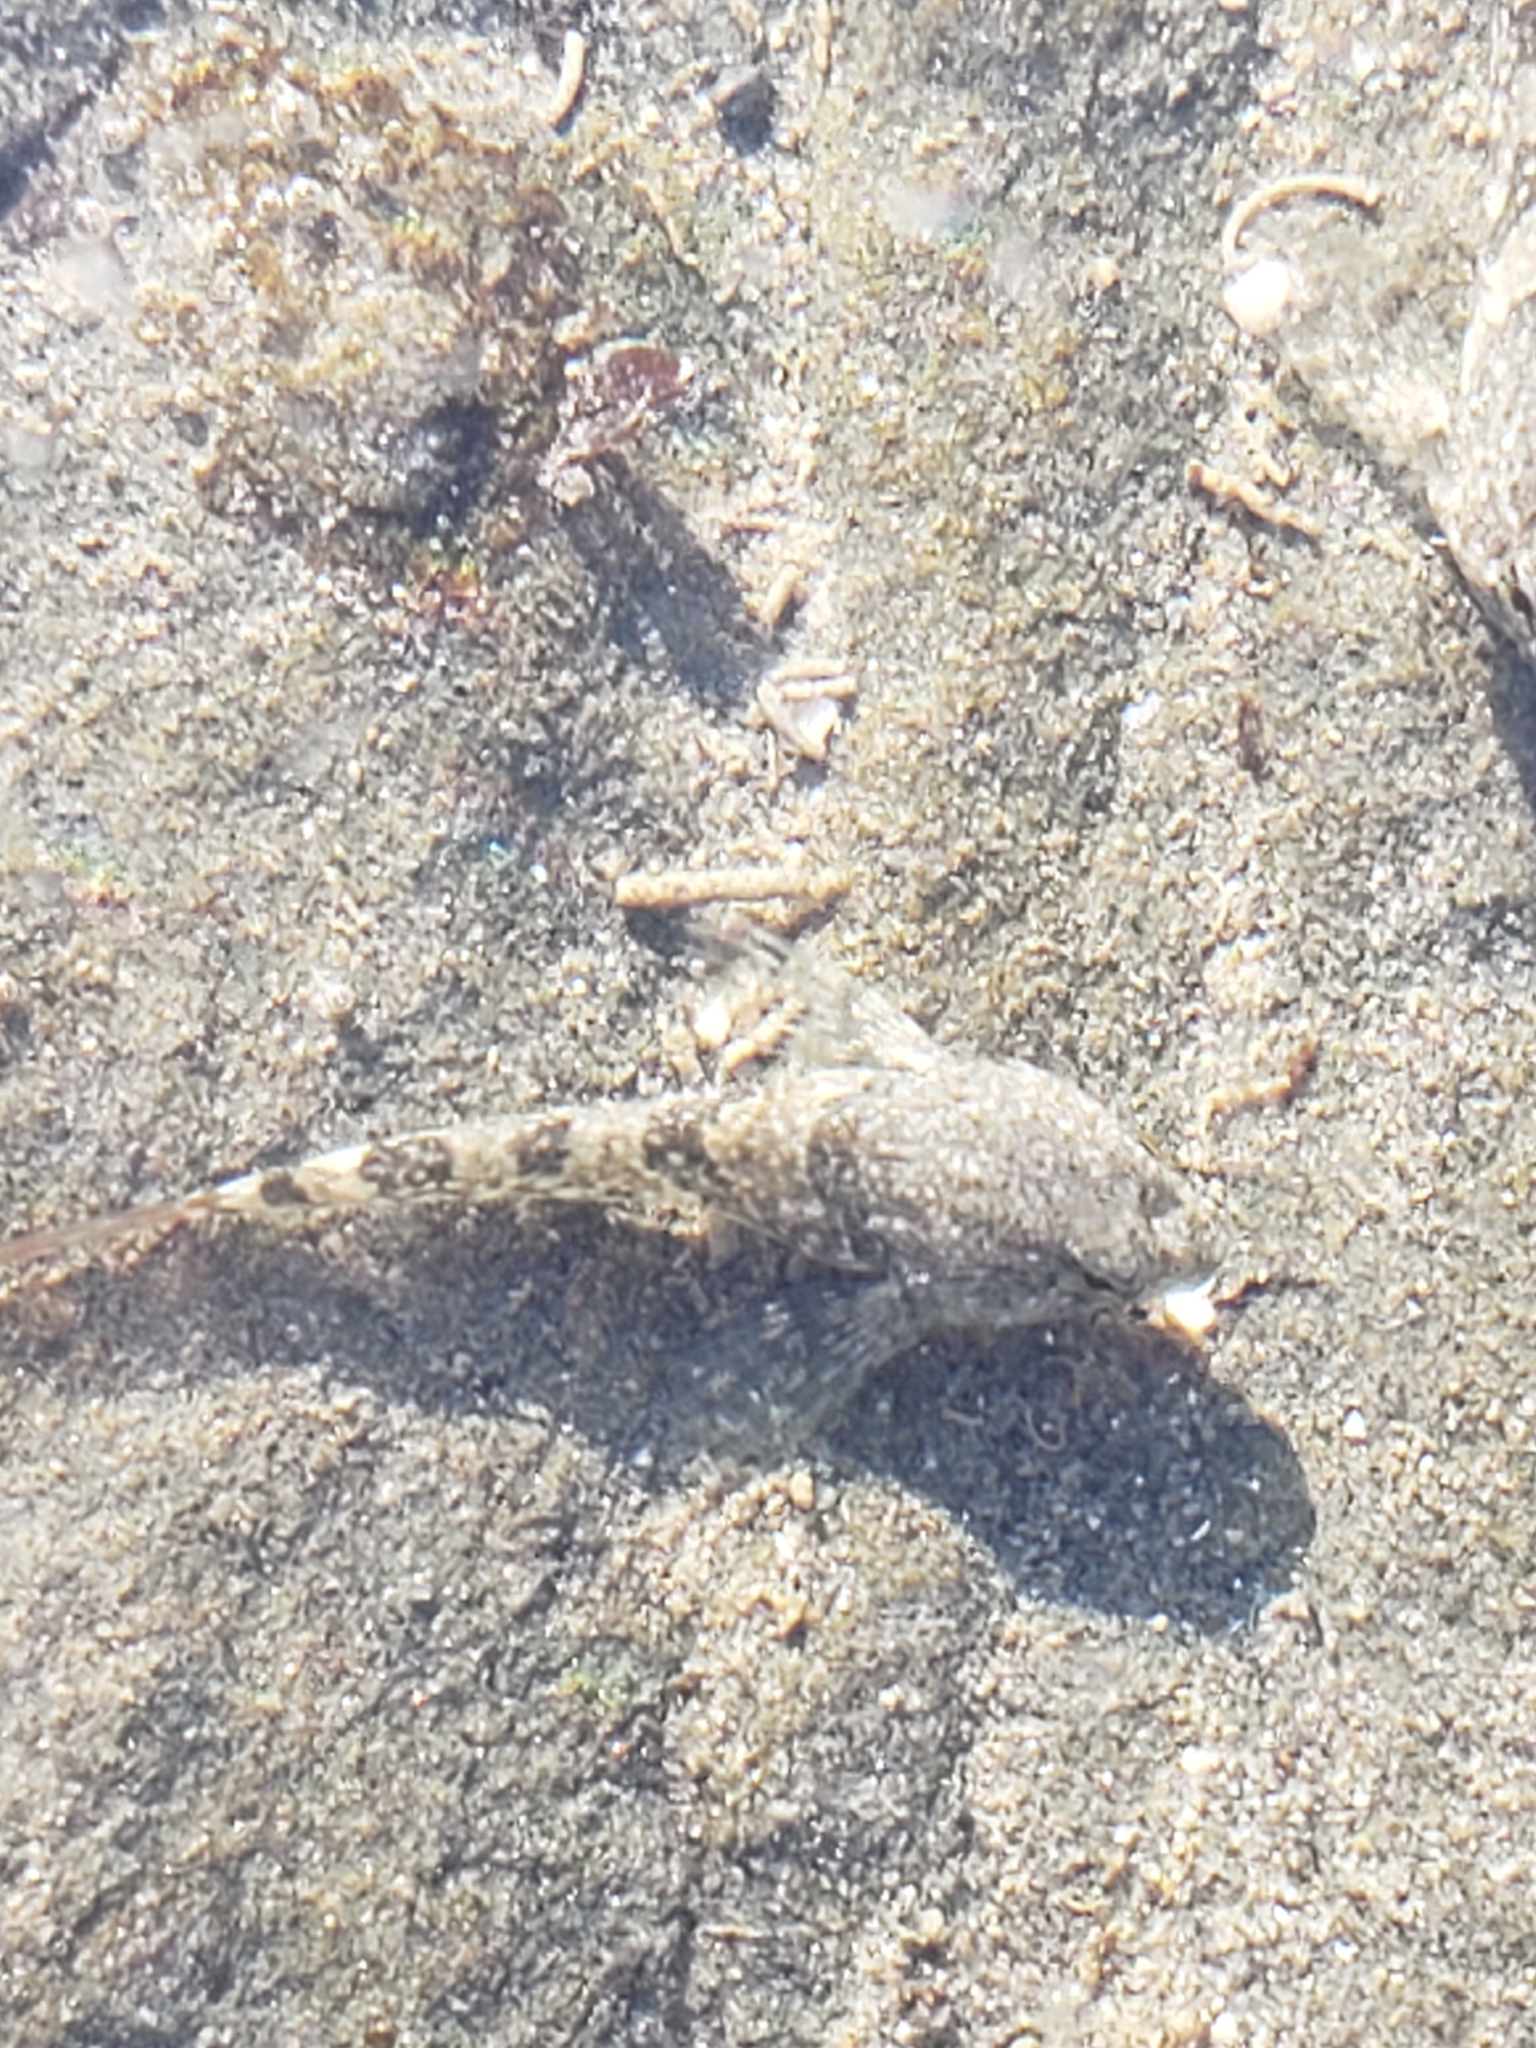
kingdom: Animalia
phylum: Chordata
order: Scorpaeniformes
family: Cottidae
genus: Oligocottus
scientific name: Oligocottus maculosus
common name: Tidepool sculpin
